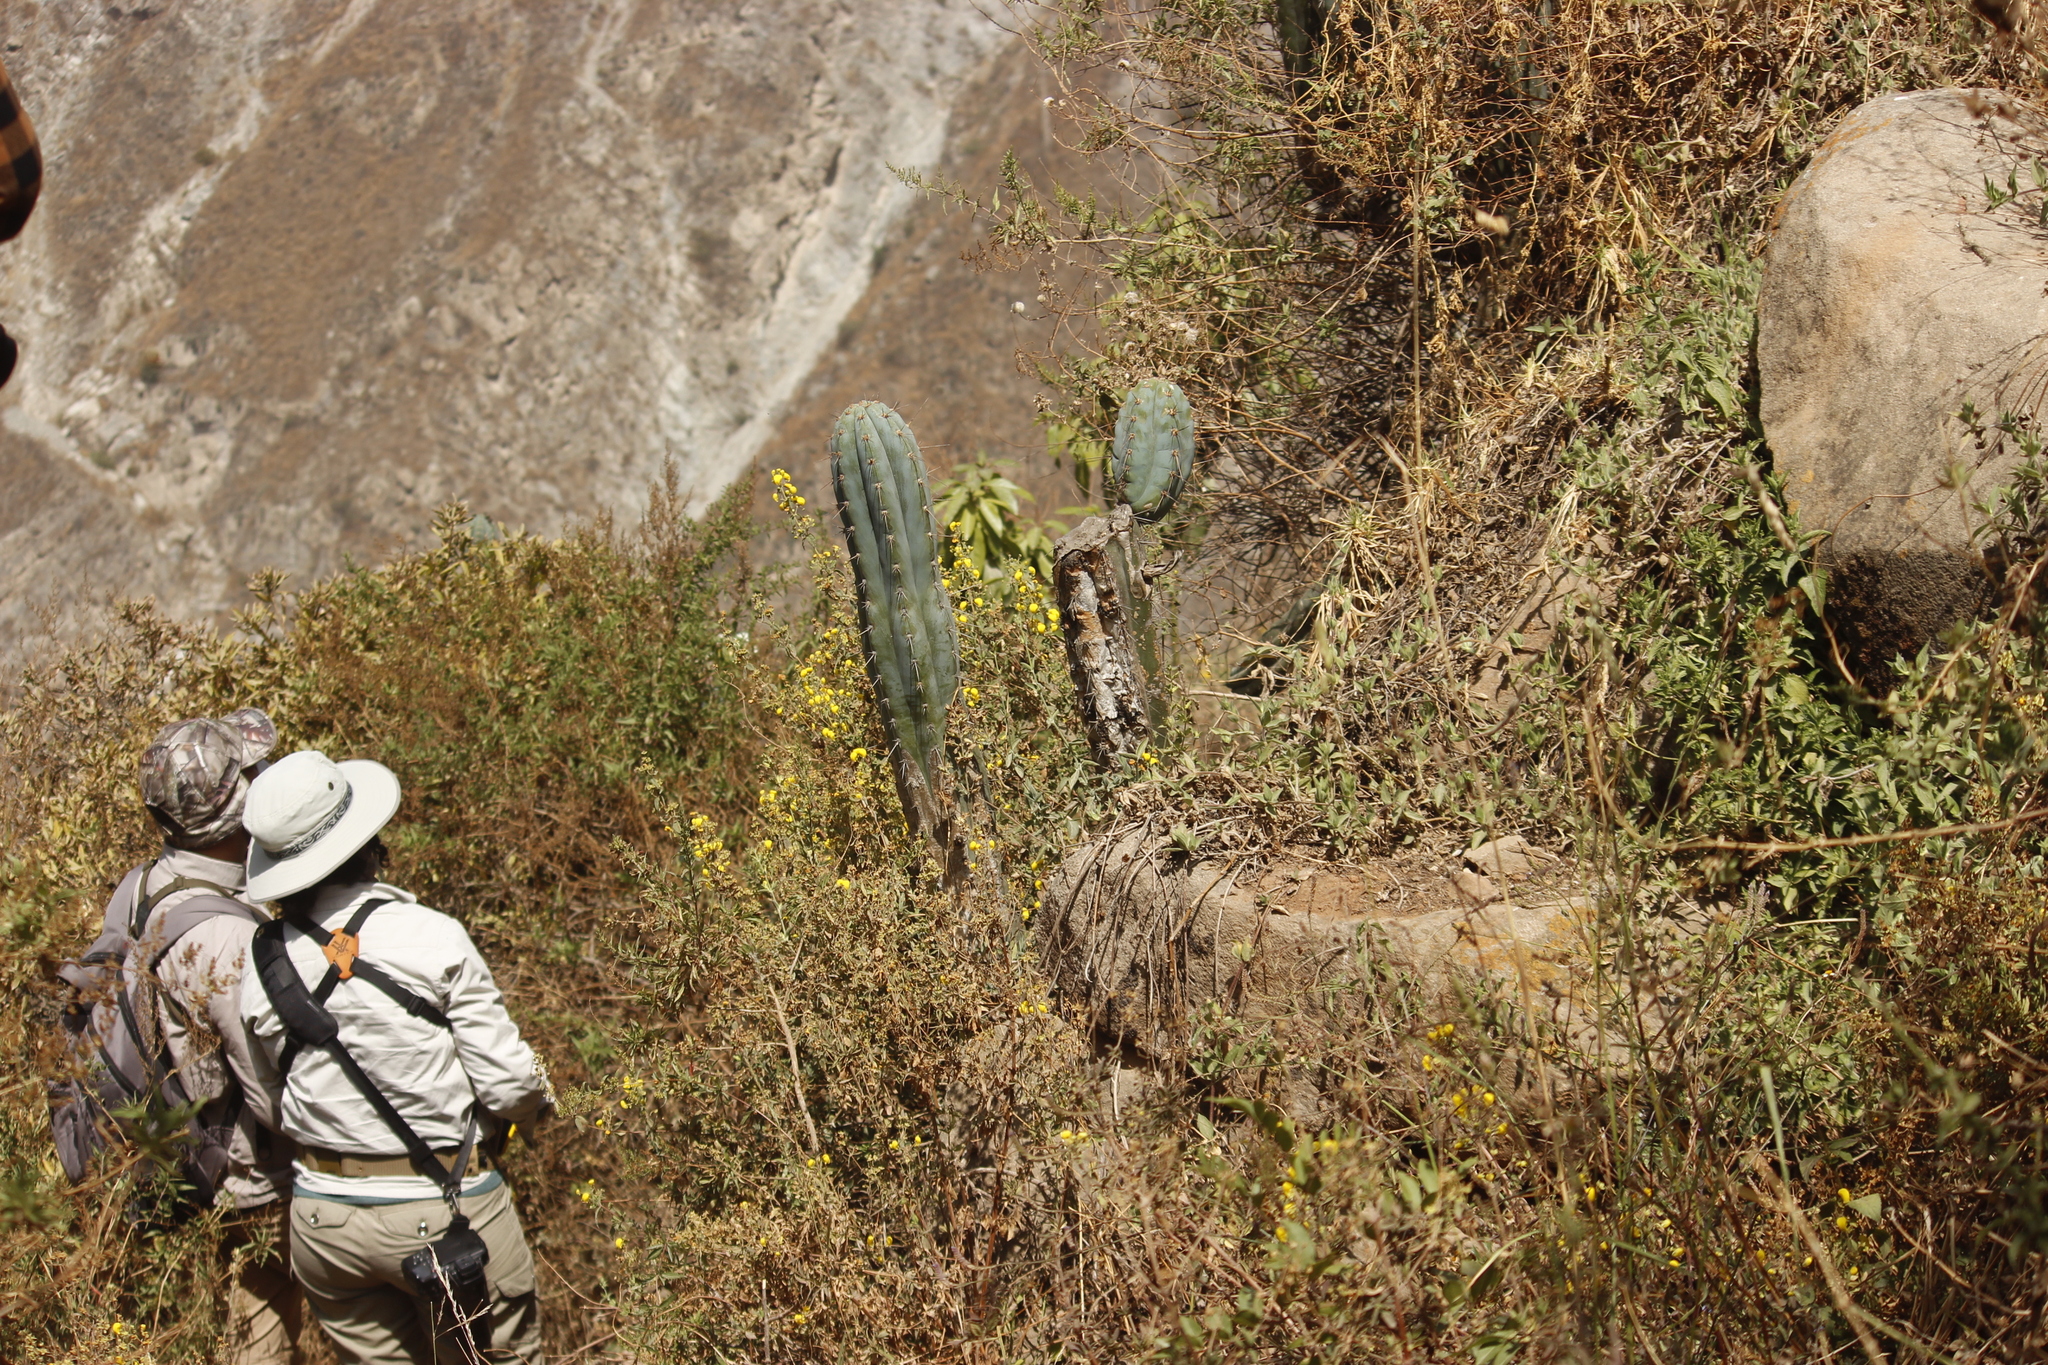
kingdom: Plantae
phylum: Tracheophyta
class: Magnoliopsida
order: Caryophyllales
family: Cactaceae
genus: Trichocereus
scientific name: Trichocereus macrogonus
